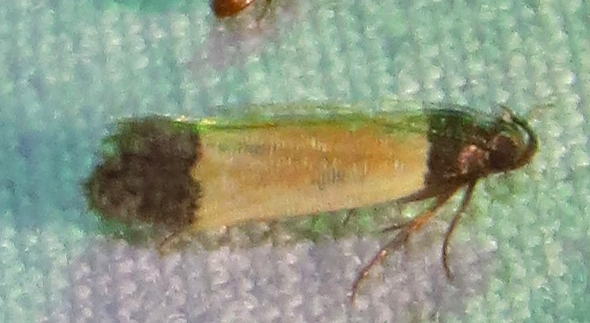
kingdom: Animalia
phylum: Arthropoda
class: Insecta
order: Lepidoptera
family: Gelechiidae
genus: Anacampsis
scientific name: Anacampsis coverdalella
